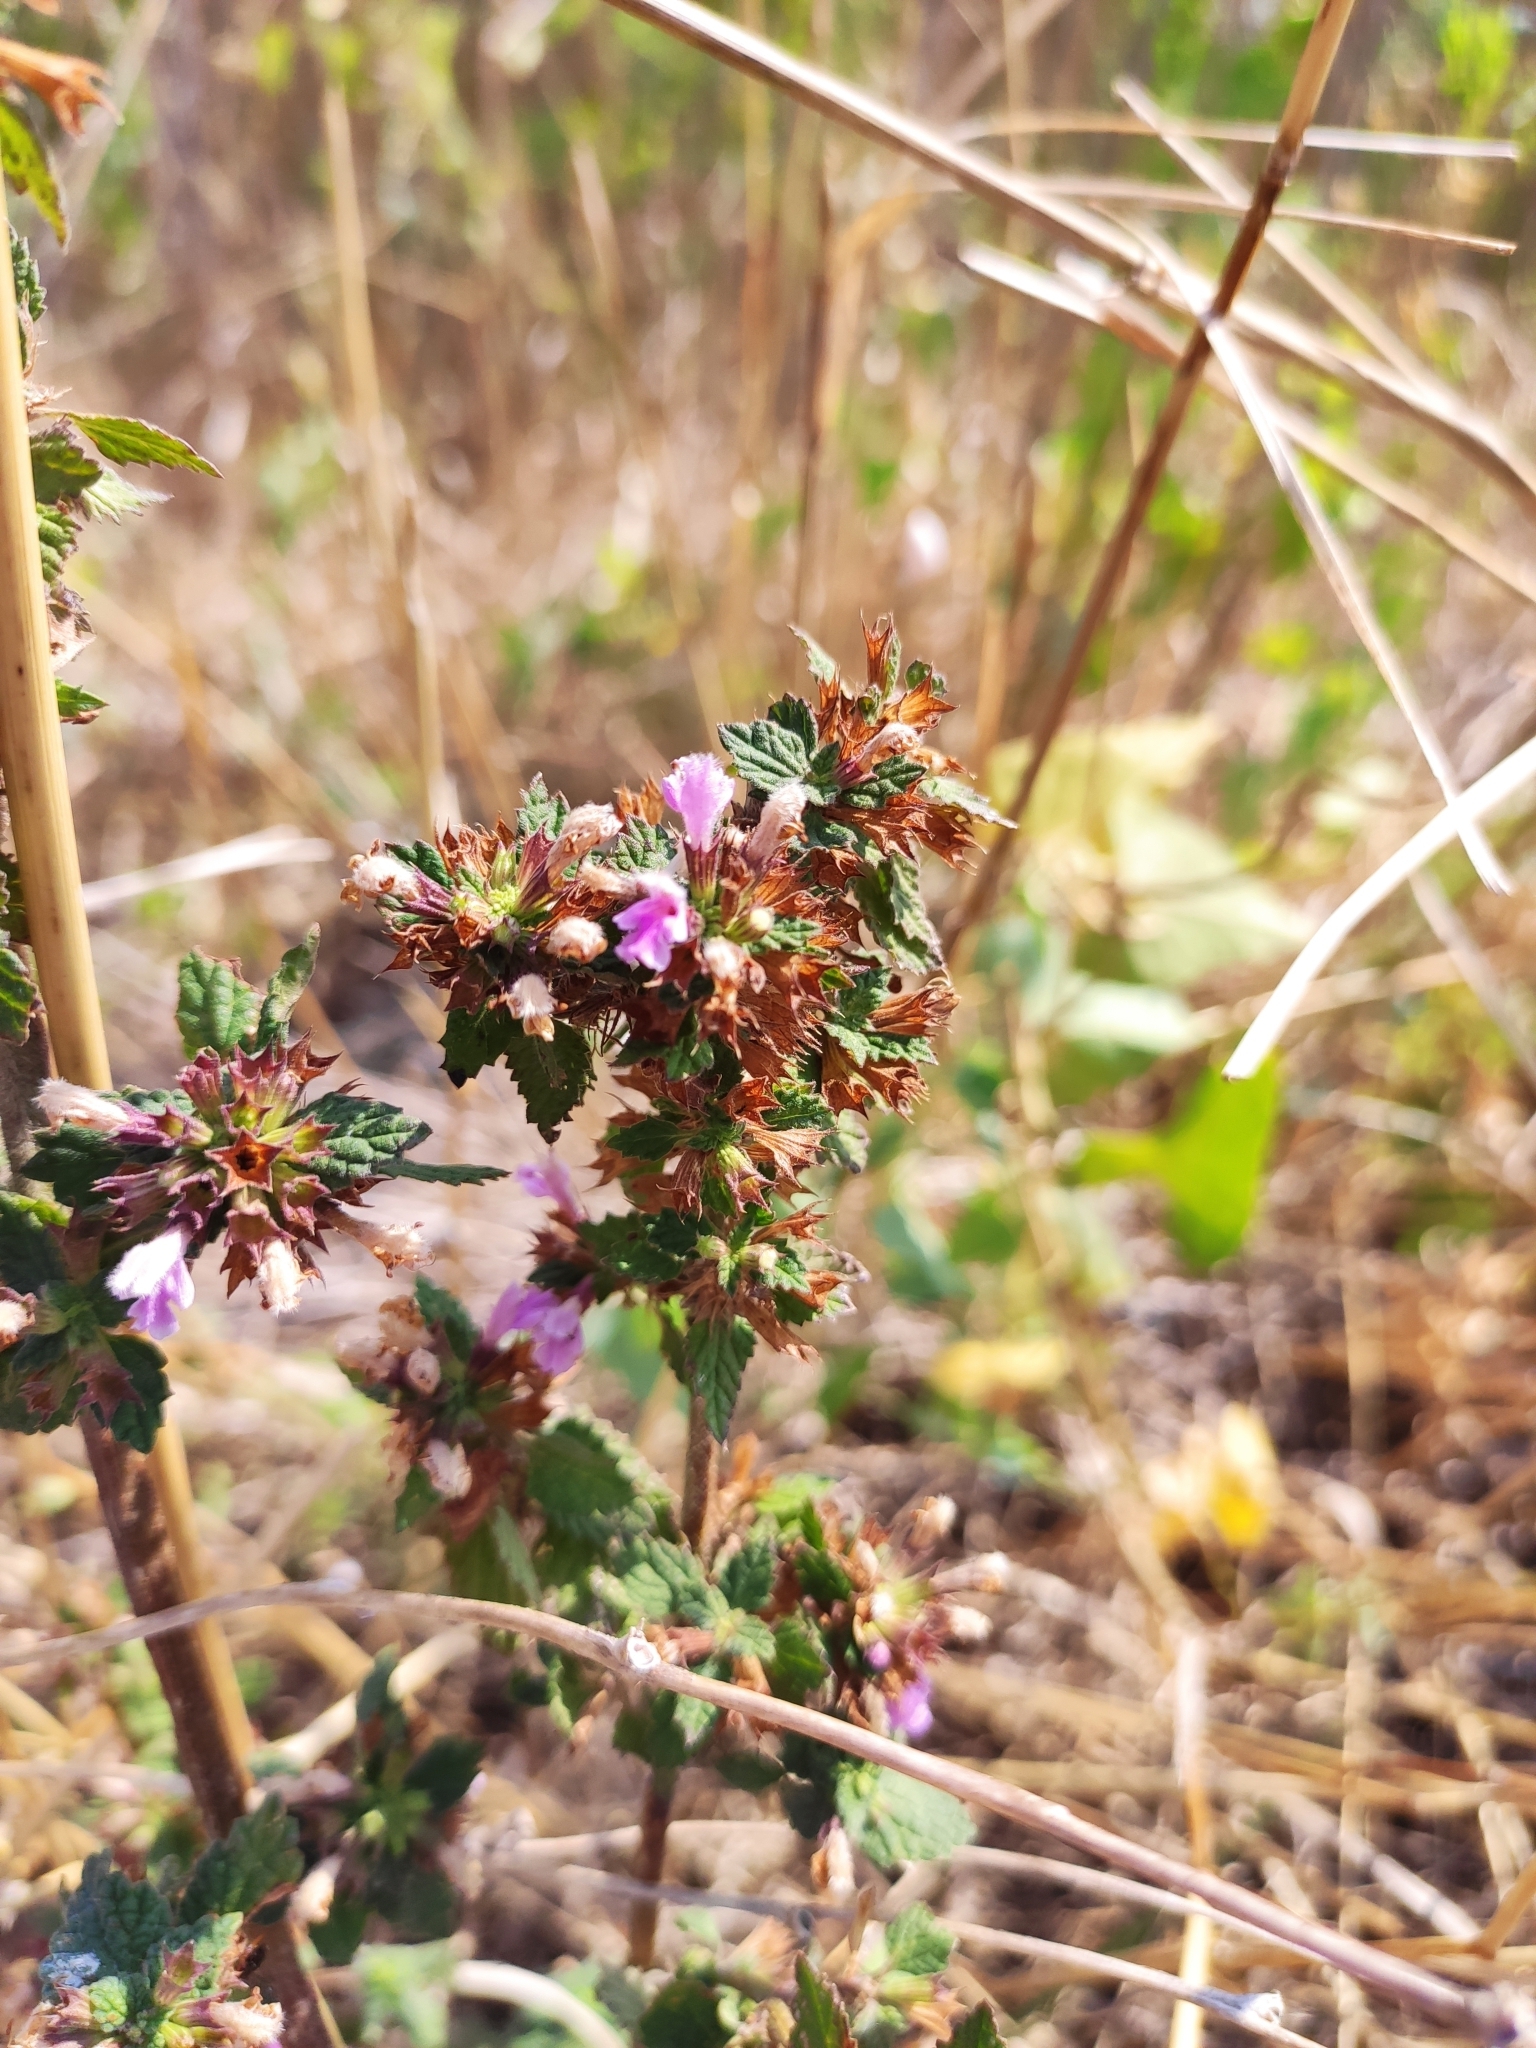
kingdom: Plantae
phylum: Tracheophyta
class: Magnoliopsida
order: Lamiales
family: Lamiaceae
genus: Ballota
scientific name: Ballota nigra
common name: Black horehound
